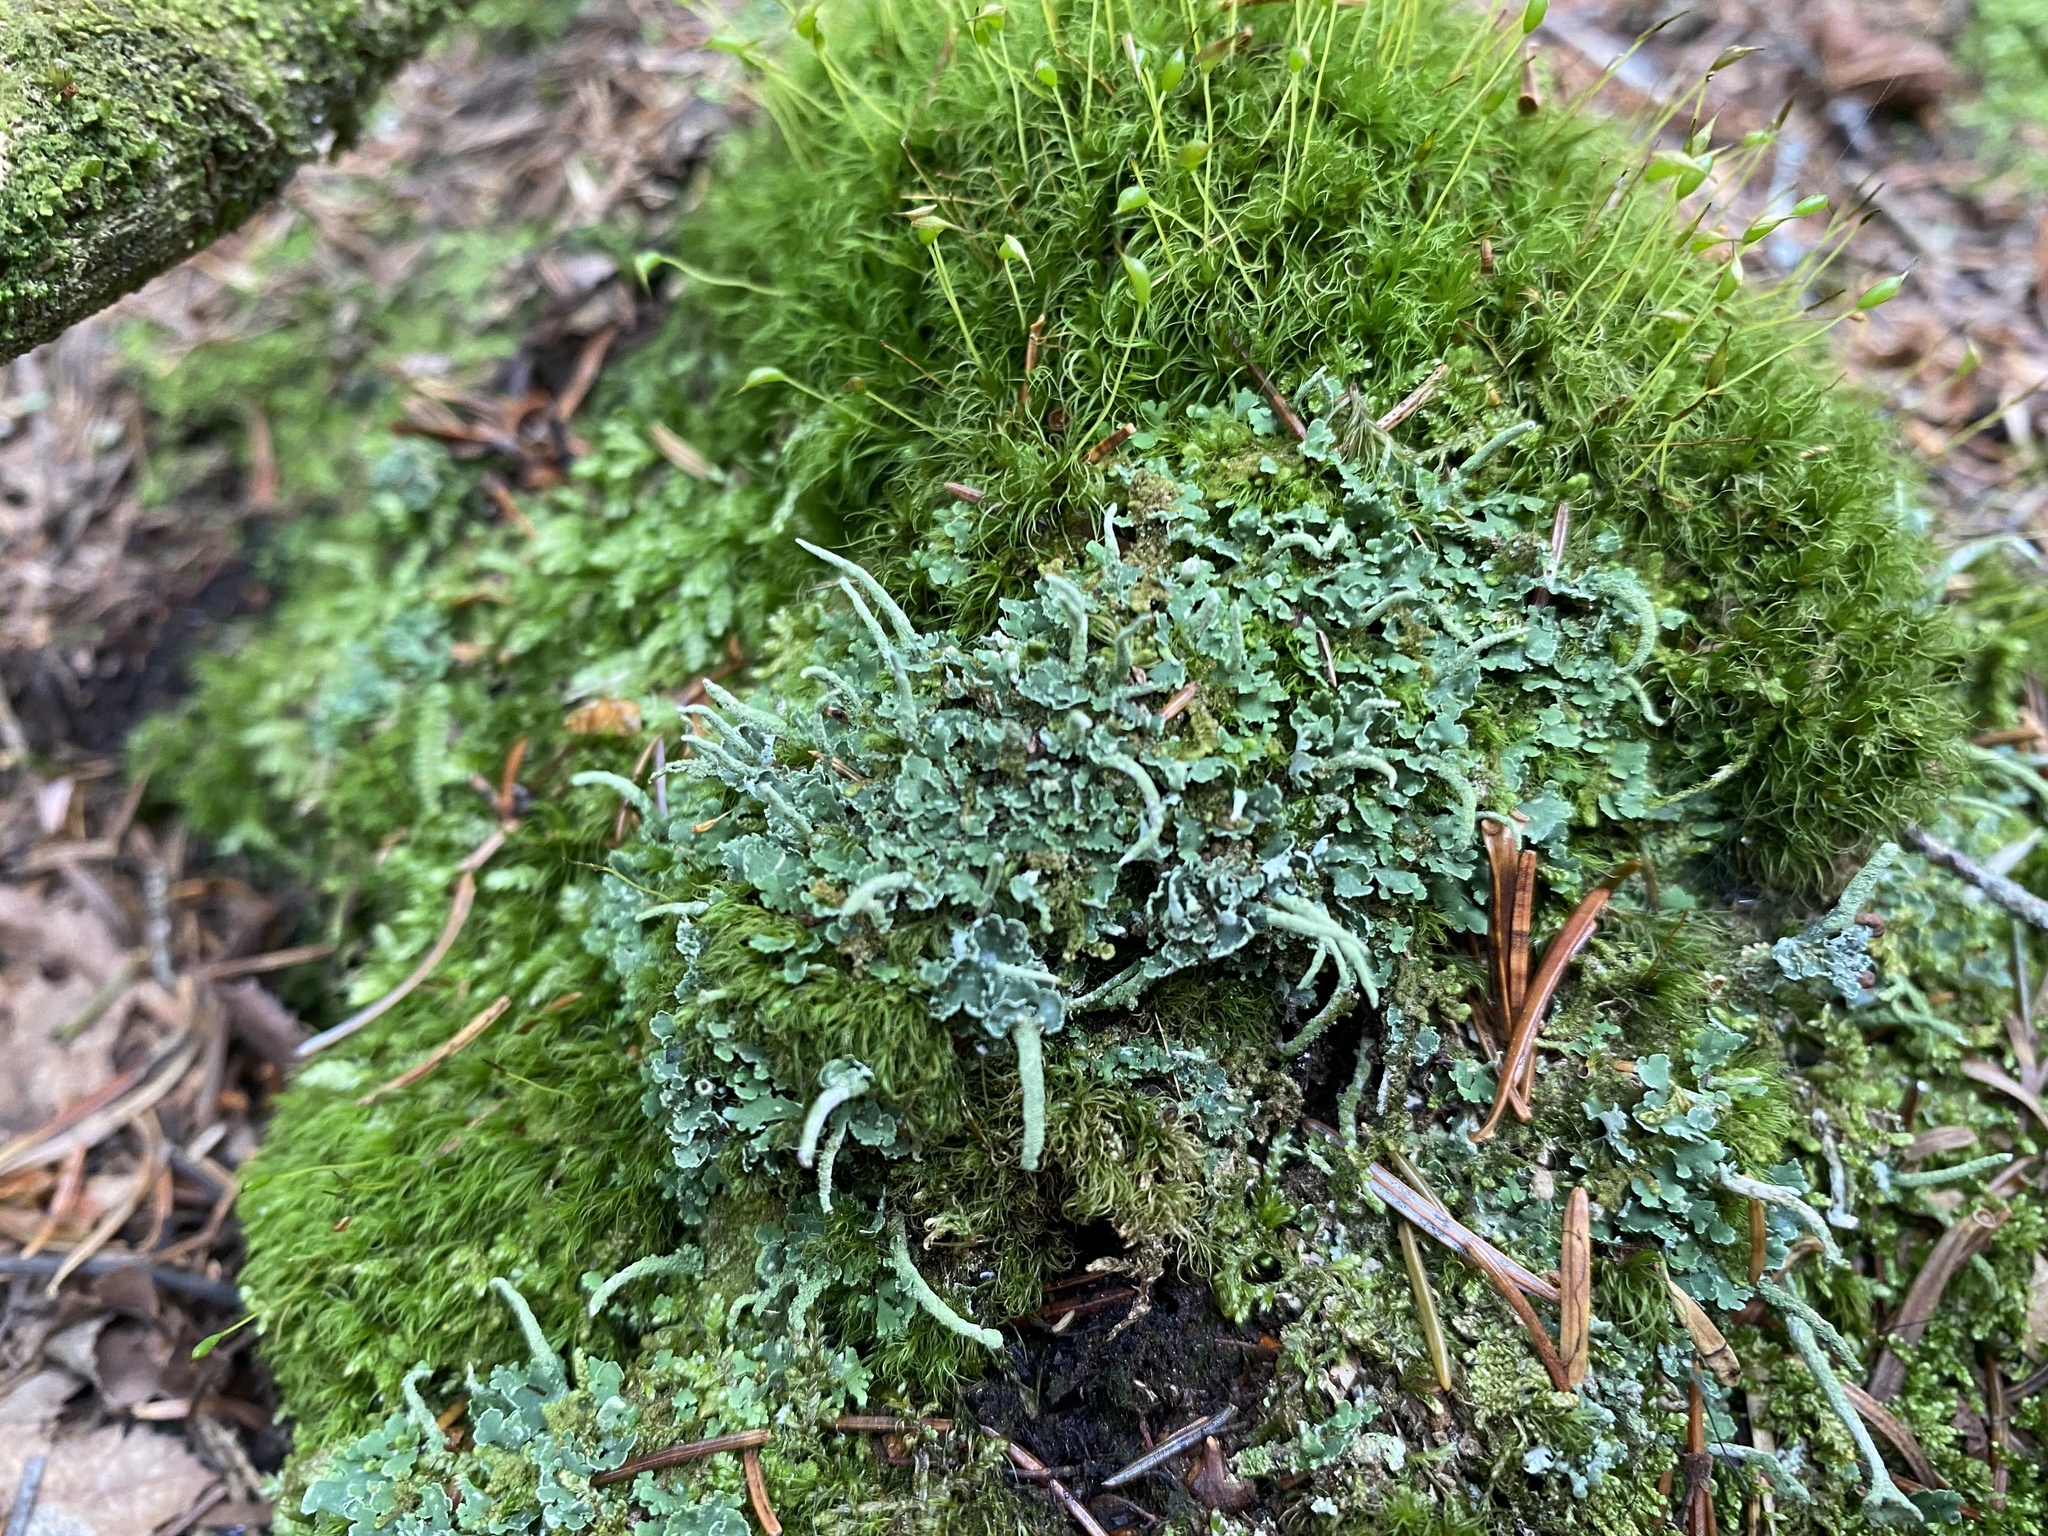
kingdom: Fungi
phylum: Ascomycota
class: Lecanoromycetes
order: Lecanorales
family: Cladoniaceae
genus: Cladonia
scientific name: Cladonia coniocraea
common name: Common powderhorn
